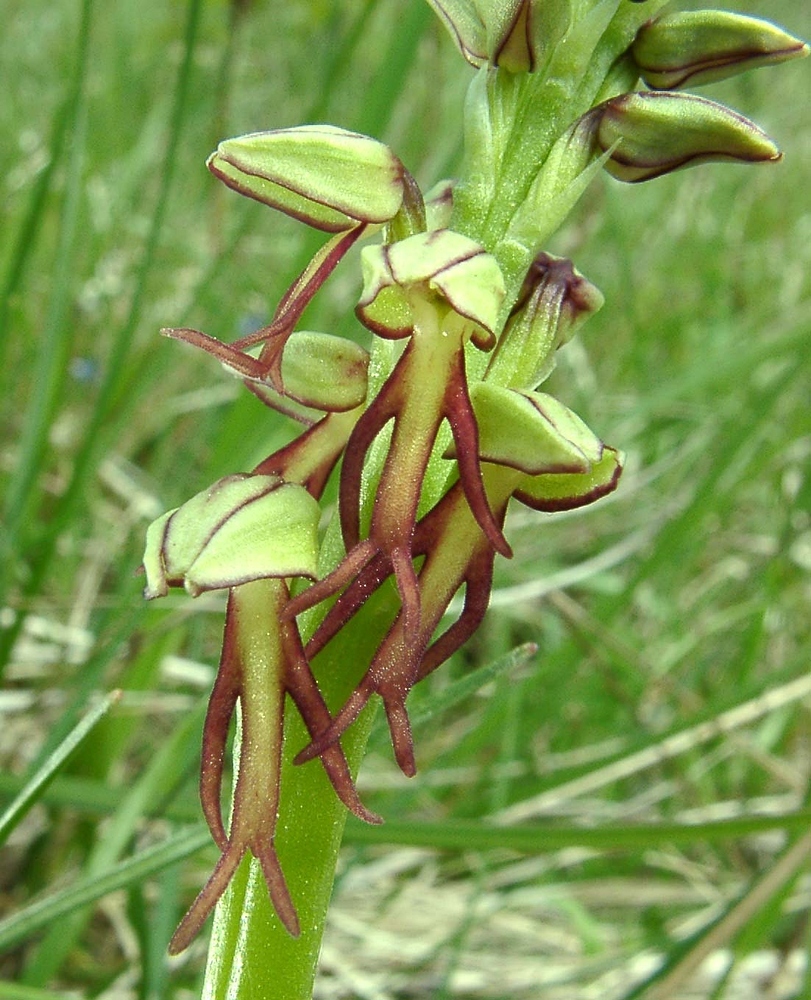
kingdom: Plantae
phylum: Tracheophyta
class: Liliopsida
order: Asparagales
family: Orchidaceae
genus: Orchis
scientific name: Orchis anthropophora
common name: Man orchid
